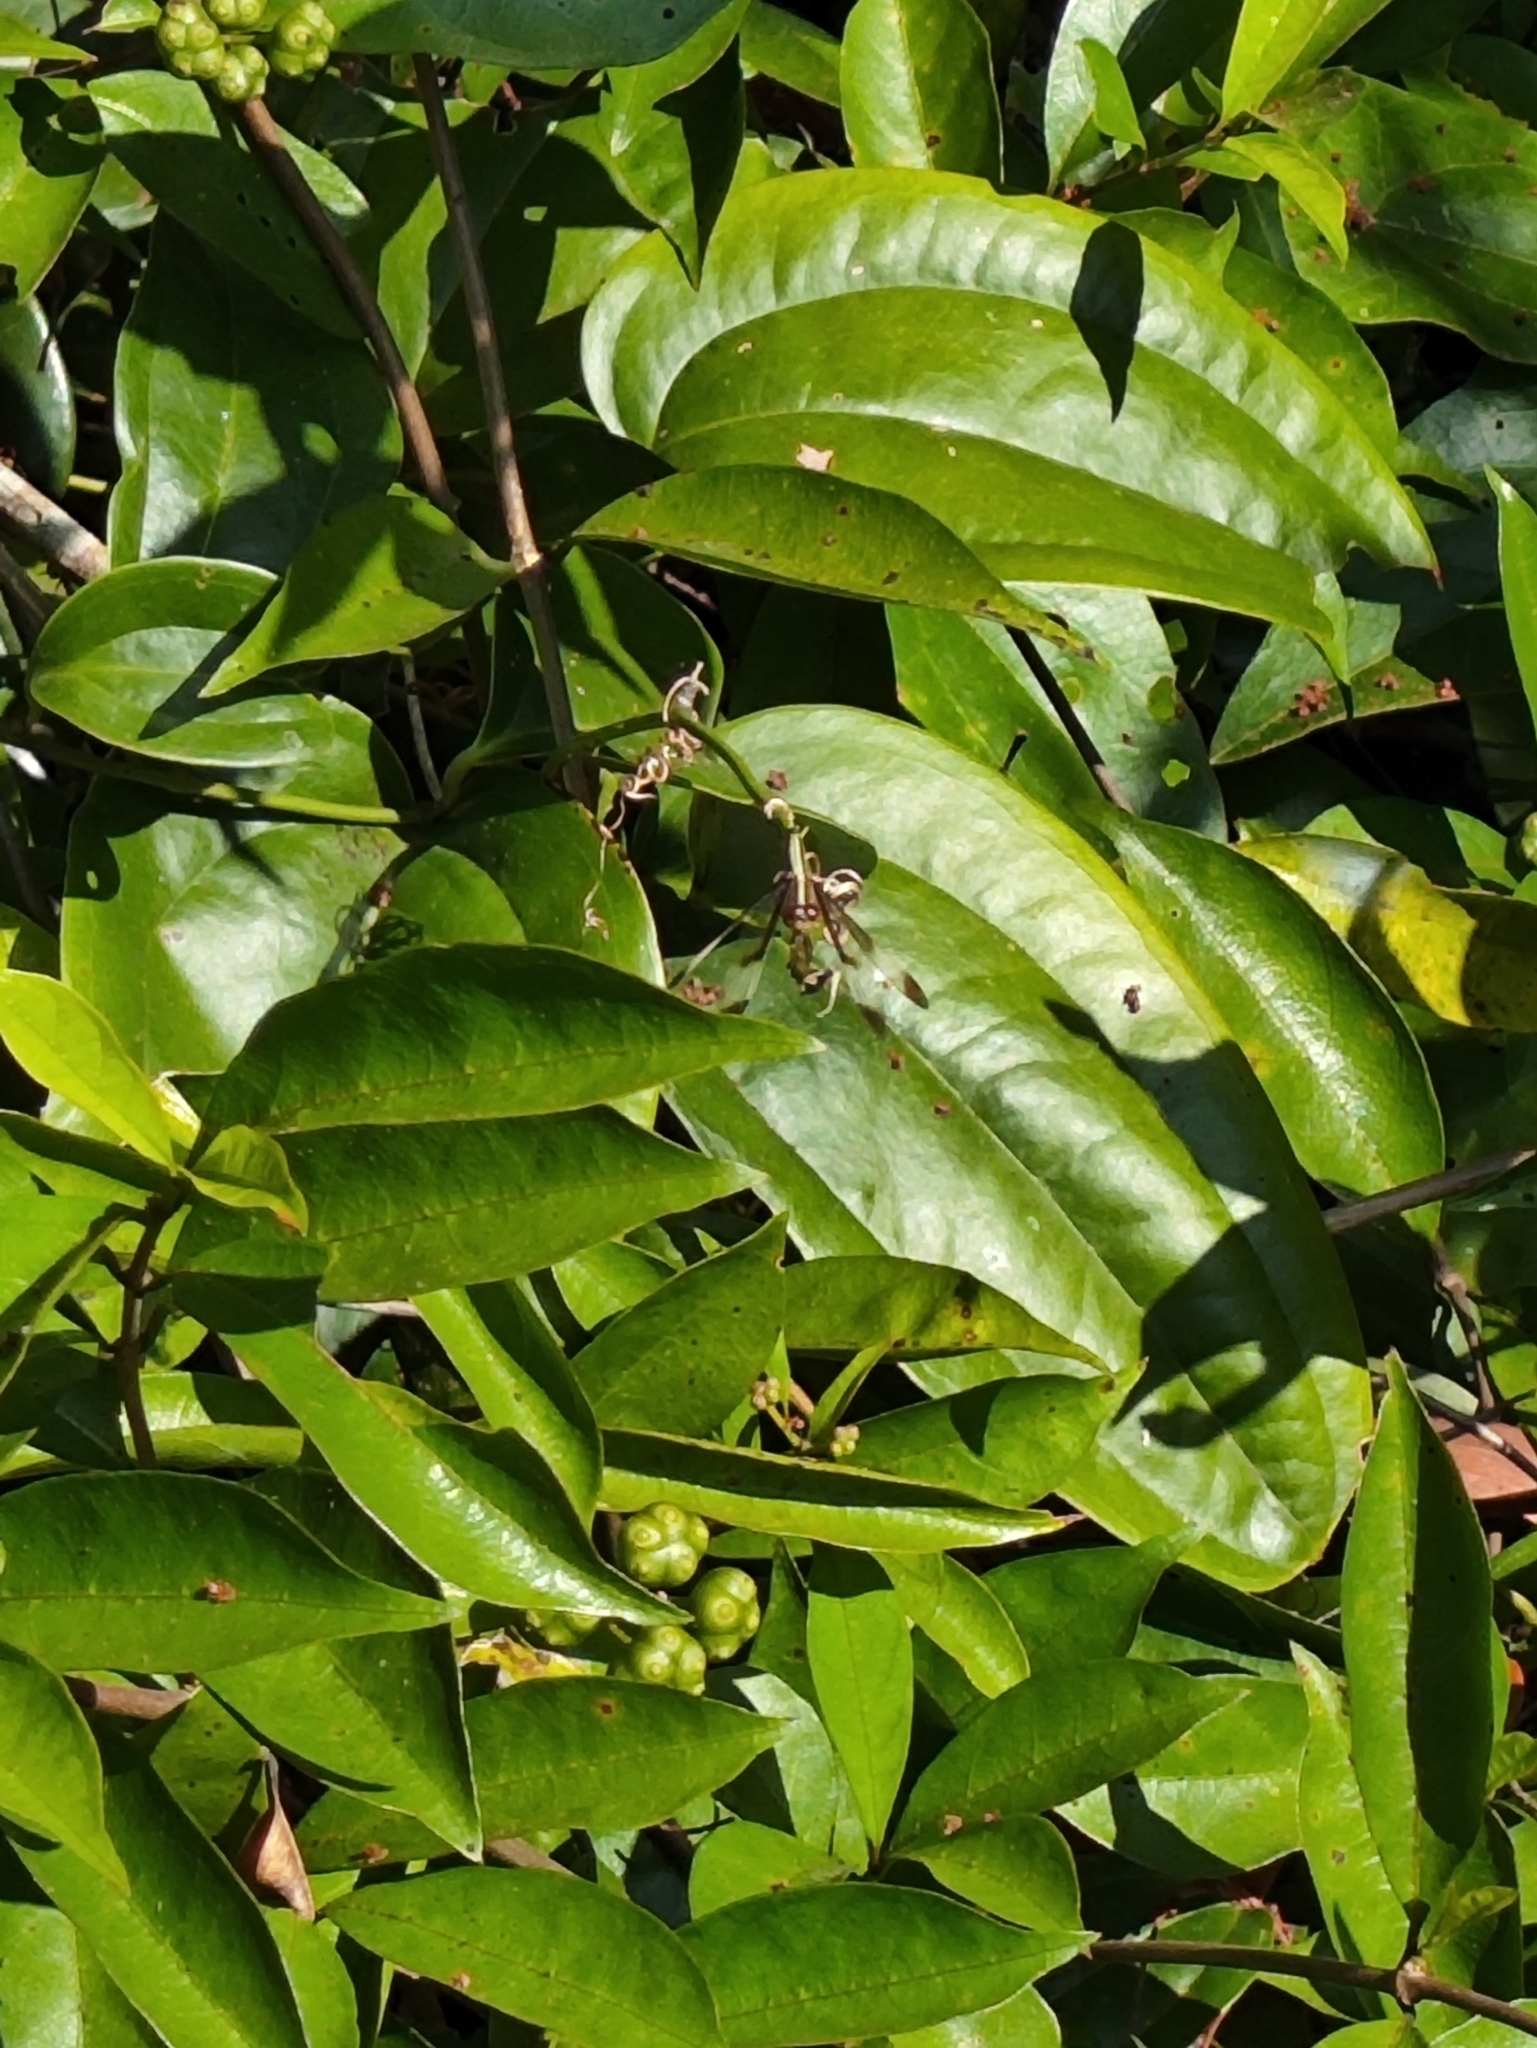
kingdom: Animalia
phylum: Arthropoda
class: Insecta
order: Odonata
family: Libellulidae
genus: Neurothemis
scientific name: Neurothemis tullia
